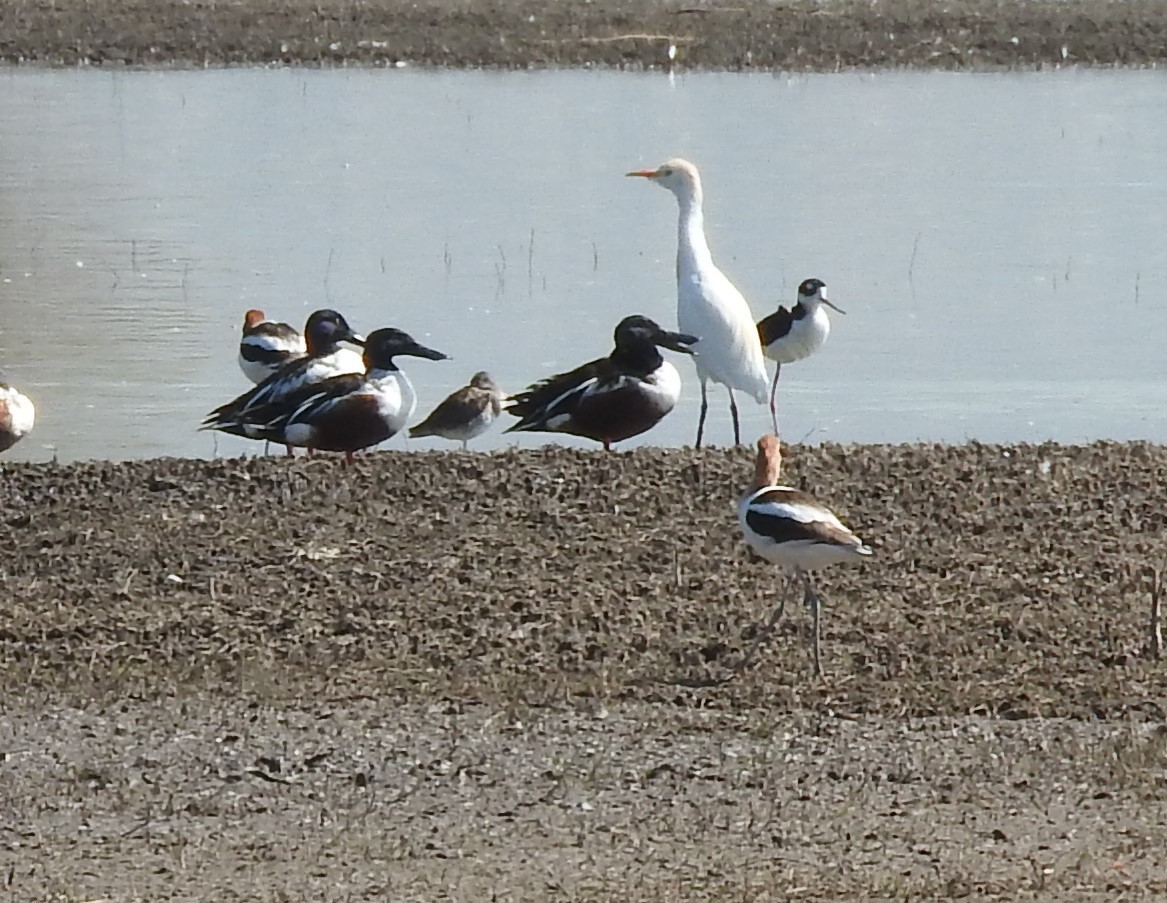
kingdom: Animalia
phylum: Chordata
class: Aves
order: Charadriiformes
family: Recurvirostridae
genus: Himantopus
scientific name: Himantopus mexicanus
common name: Black-necked stilt
